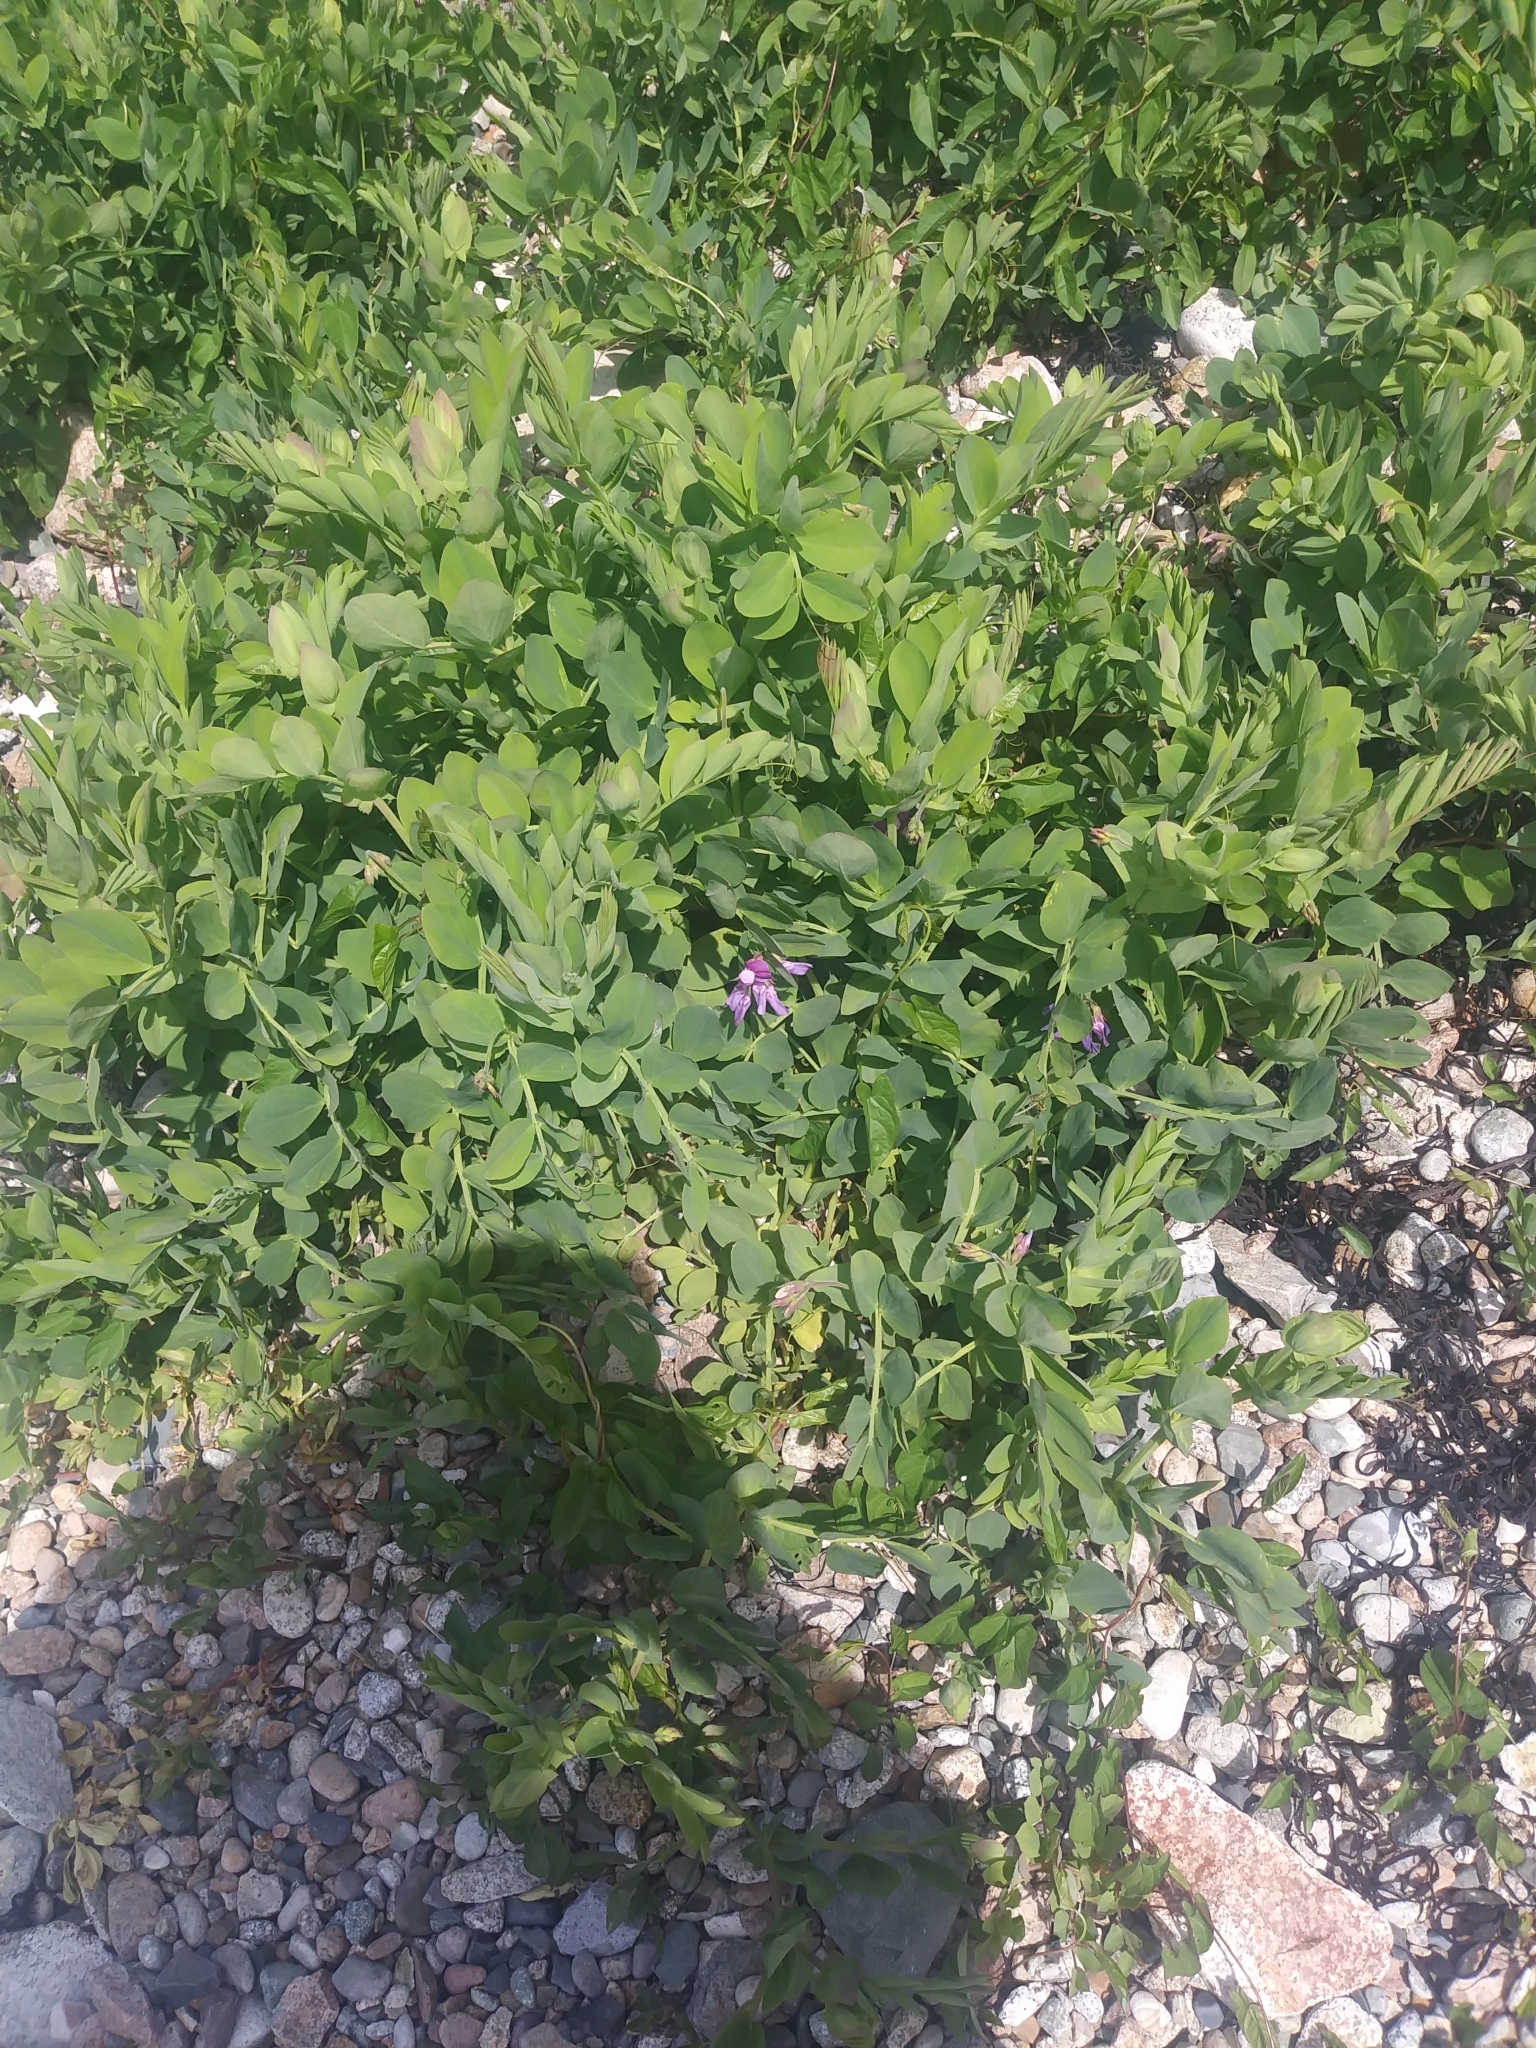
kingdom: Plantae
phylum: Tracheophyta
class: Magnoliopsida
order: Fabales
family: Fabaceae
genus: Lathyrus
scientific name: Lathyrus japonicus
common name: Sea pea
